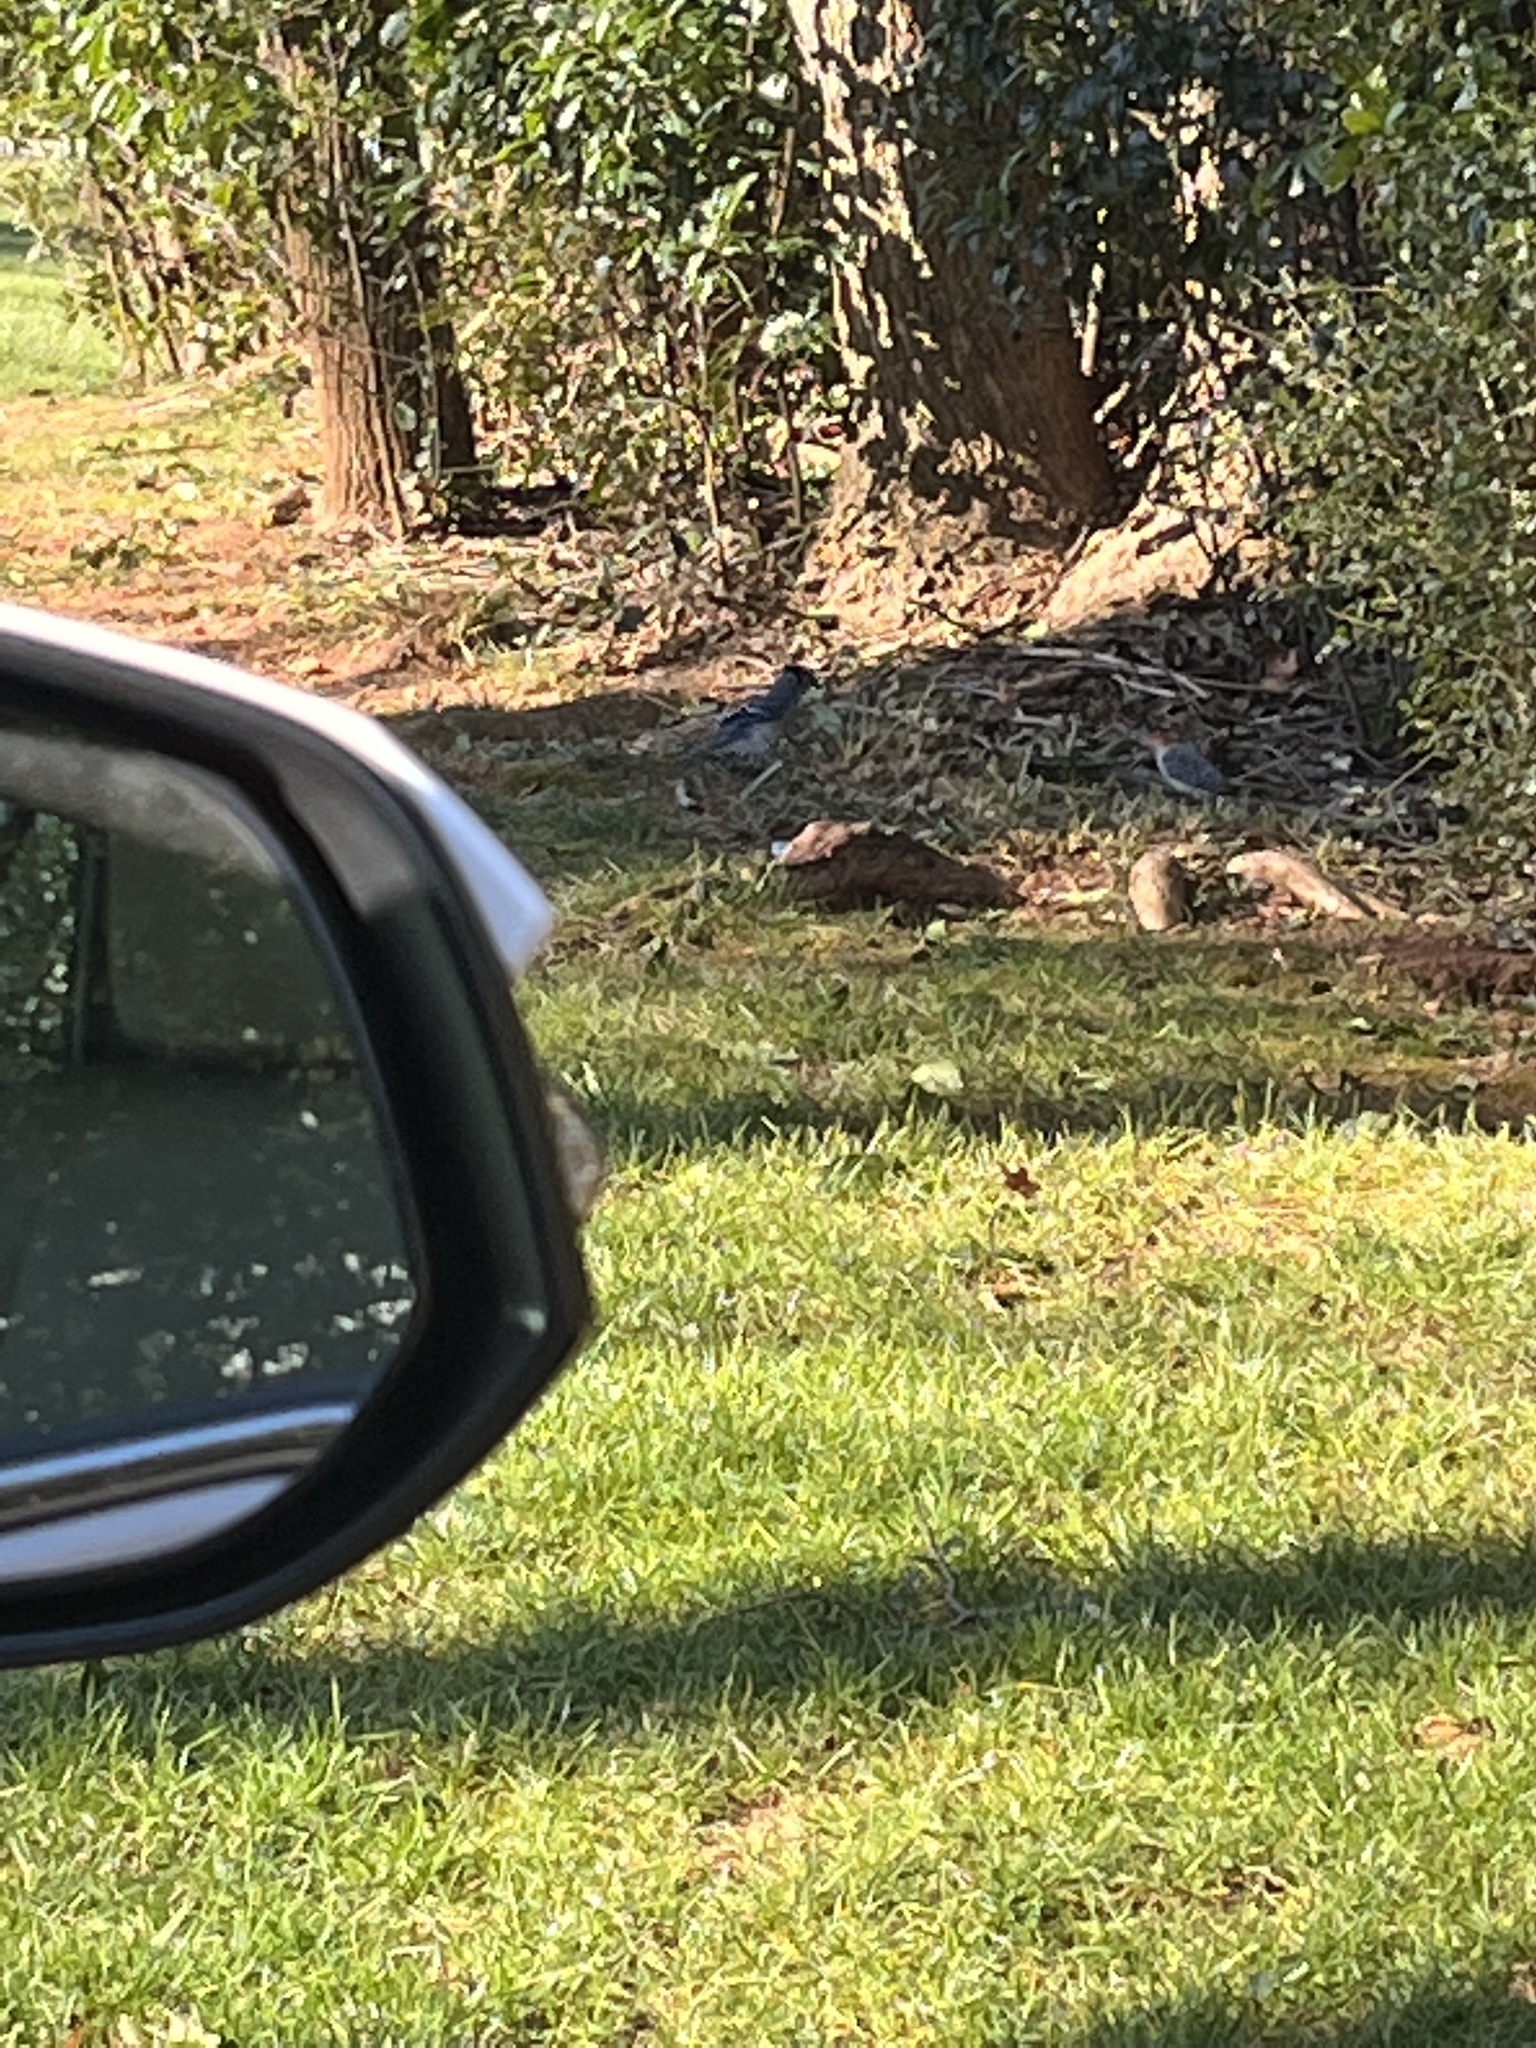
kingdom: Animalia
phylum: Chordata
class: Aves
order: Passeriformes
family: Corvidae
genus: Cyanocitta
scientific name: Cyanocitta cristata
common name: Blue jay
